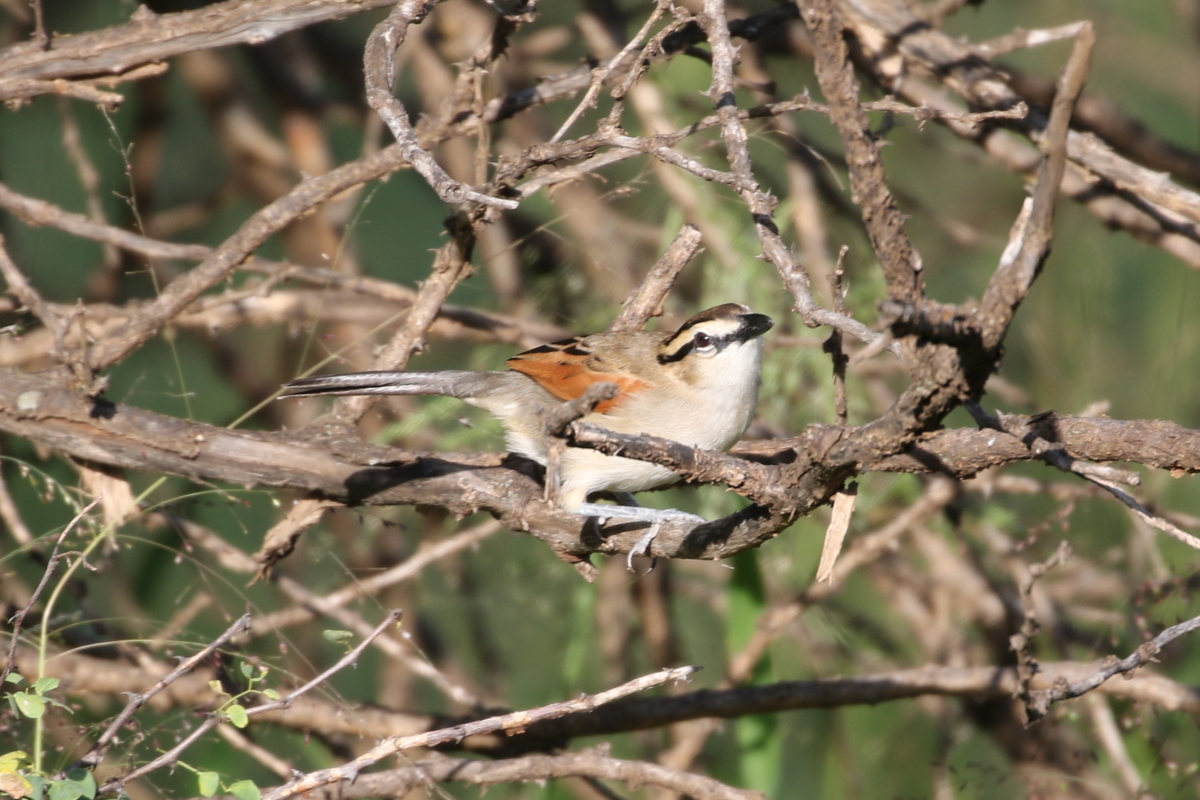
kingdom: Animalia
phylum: Chordata
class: Aves
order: Passeriformes
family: Malaconotidae
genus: Tchagra
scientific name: Tchagra australis
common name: Brown-crowned tchagra
